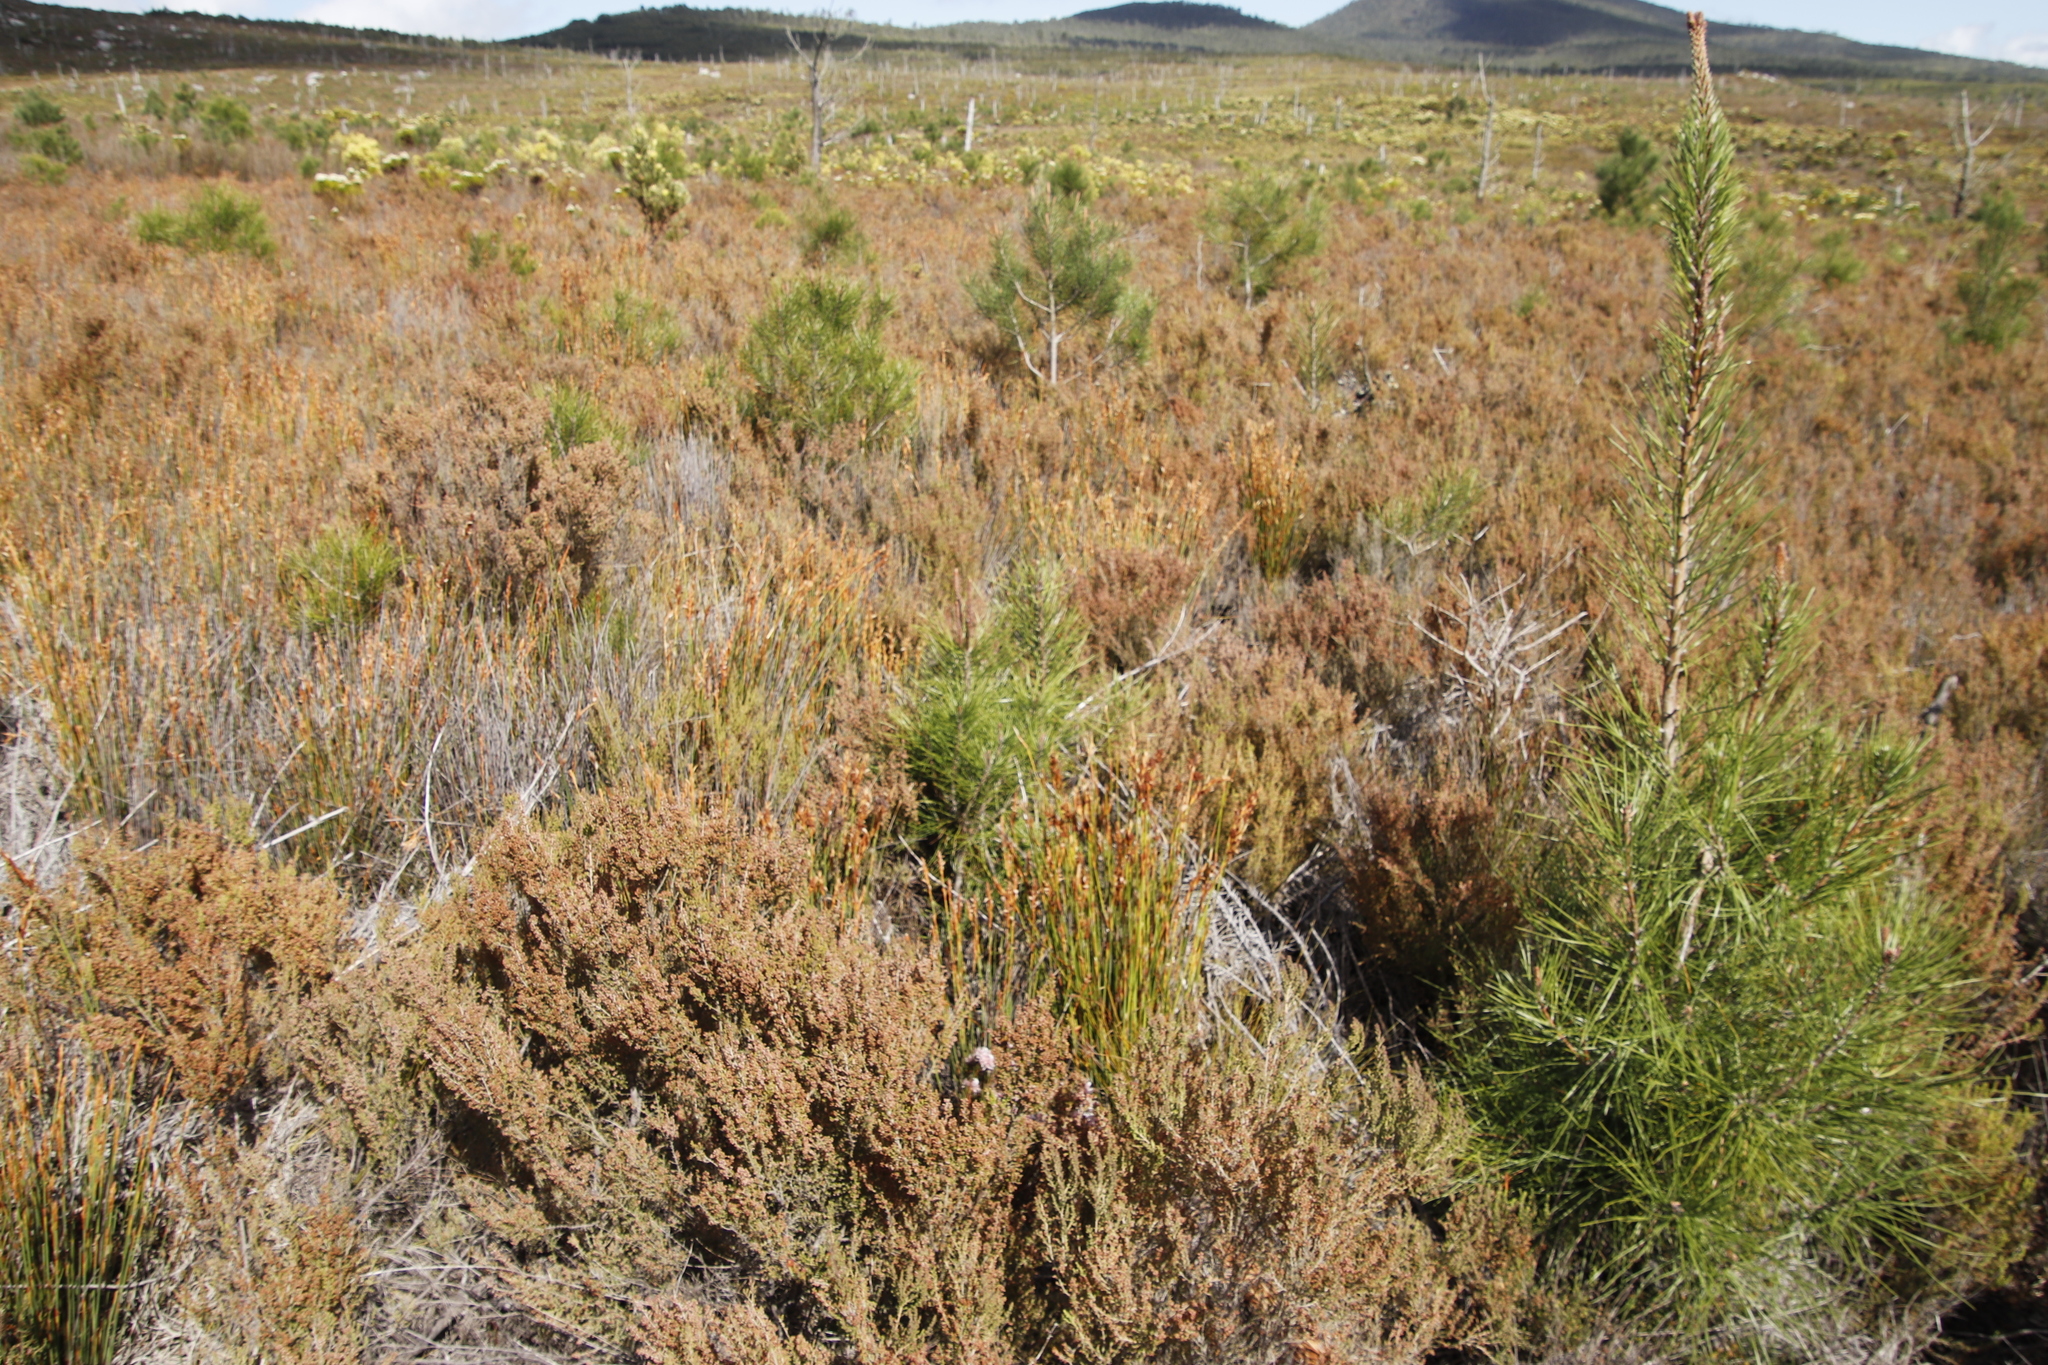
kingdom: Plantae
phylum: Tracheophyta
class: Pinopsida
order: Pinales
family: Pinaceae
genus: Pinus
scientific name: Pinus pinaster
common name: Maritime pine
